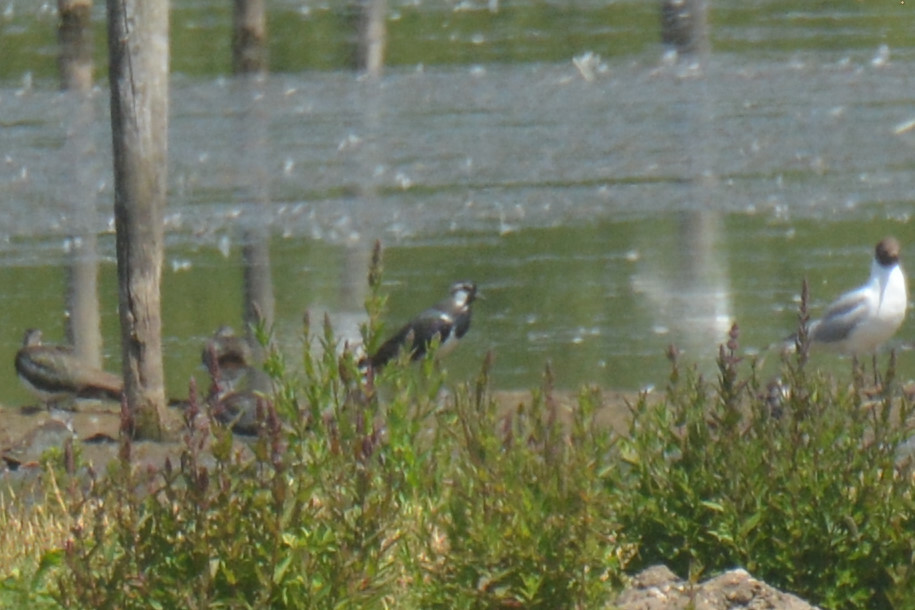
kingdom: Animalia
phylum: Chordata
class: Aves
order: Charadriiformes
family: Charadriidae
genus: Vanellus
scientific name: Vanellus vanellus
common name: Northern lapwing
